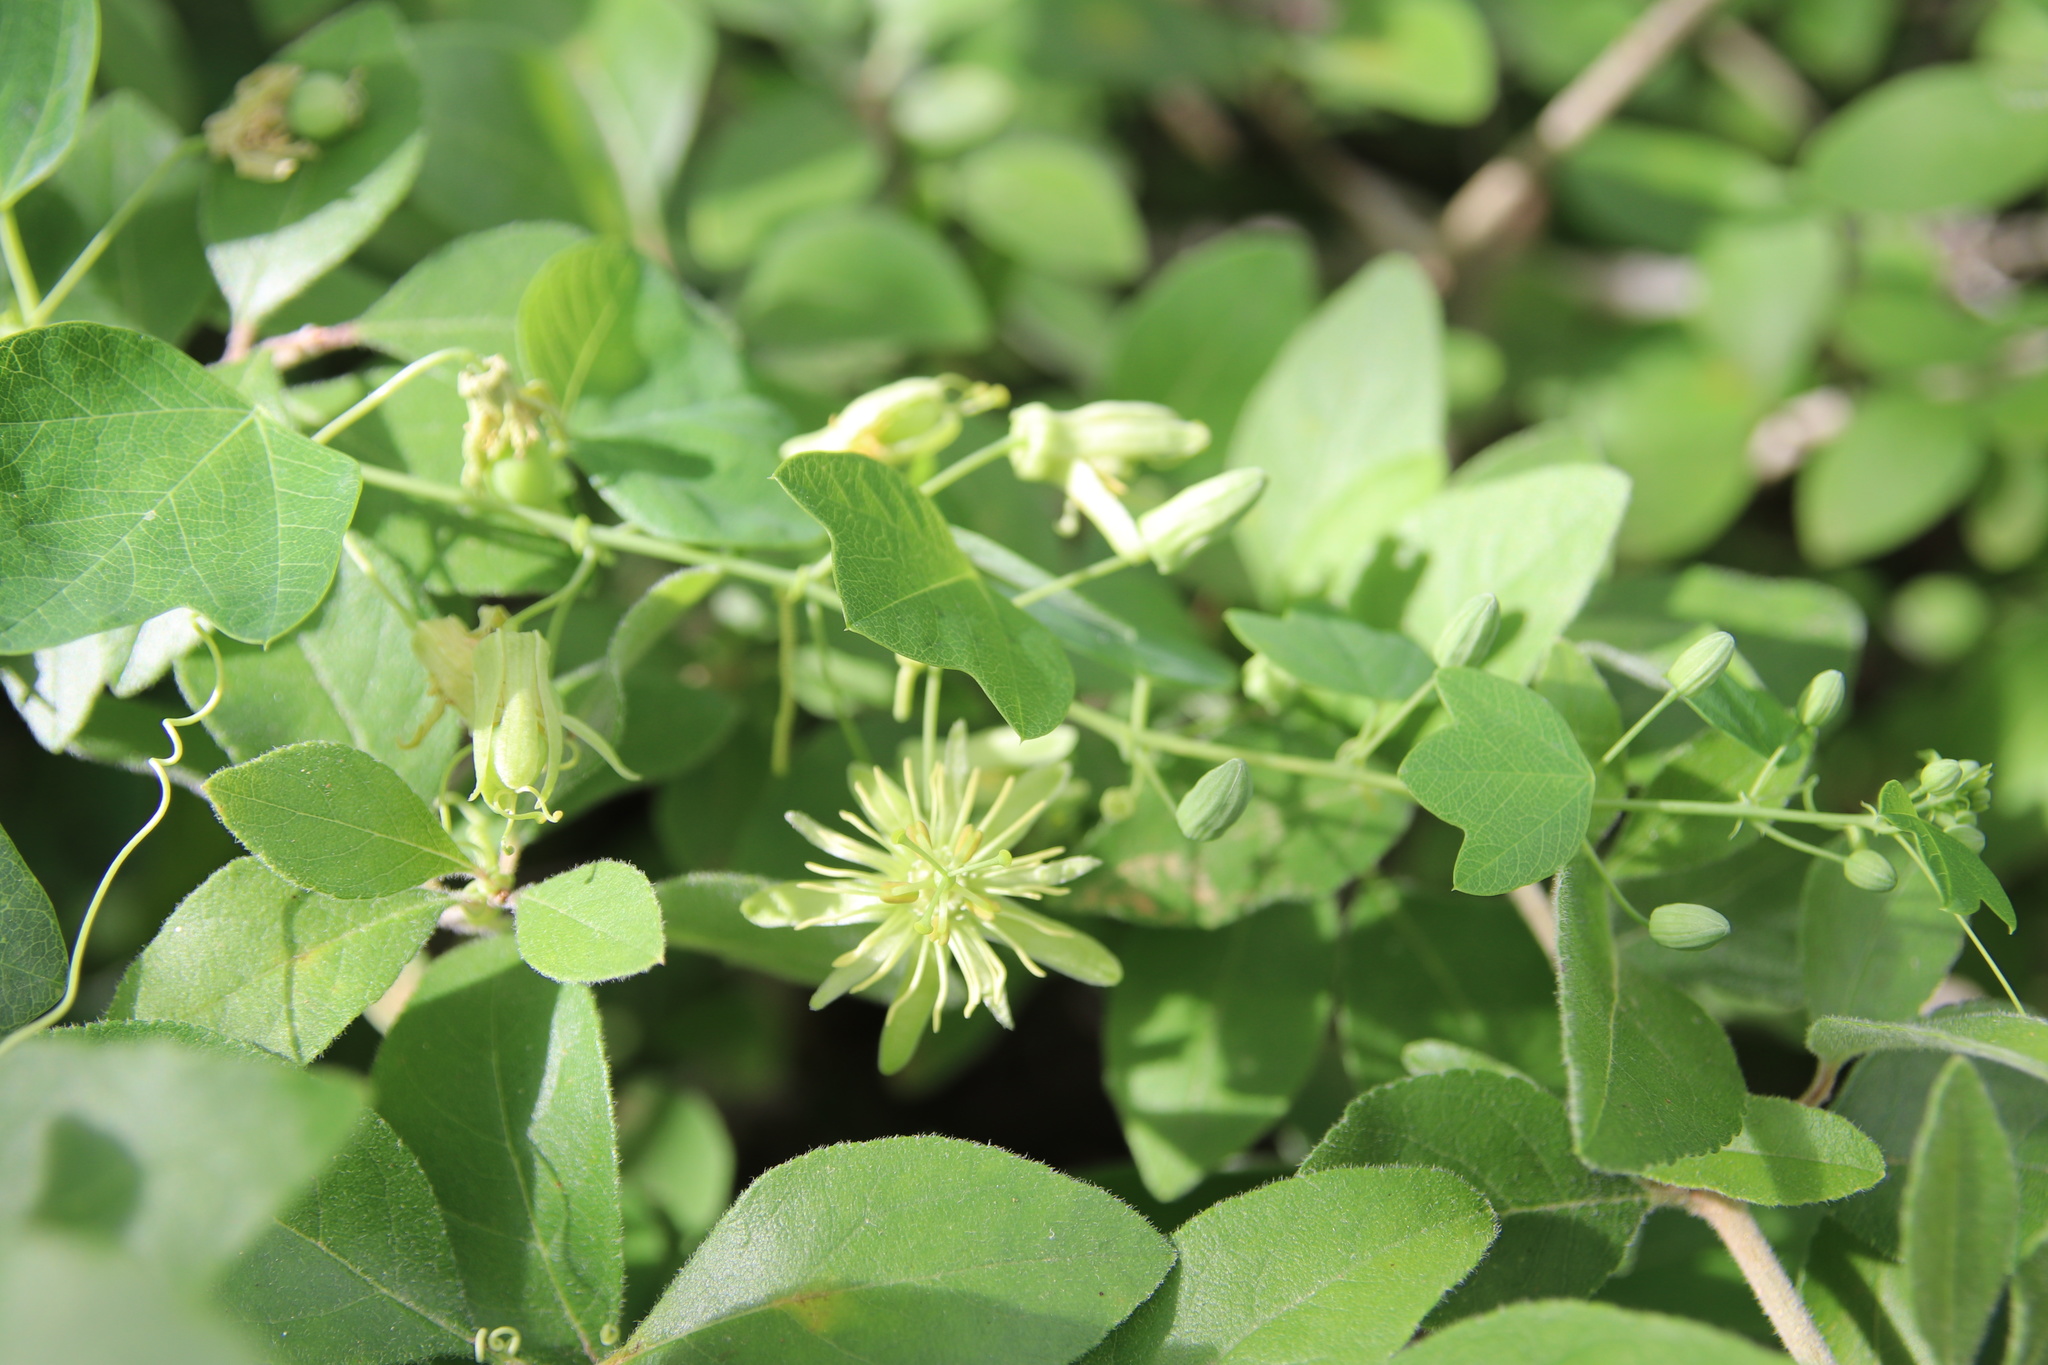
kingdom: Plantae
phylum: Tracheophyta
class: Magnoliopsida
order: Malpighiales
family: Passifloraceae
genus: Passiflora
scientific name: Passiflora lutea
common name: Yellow passionflower
